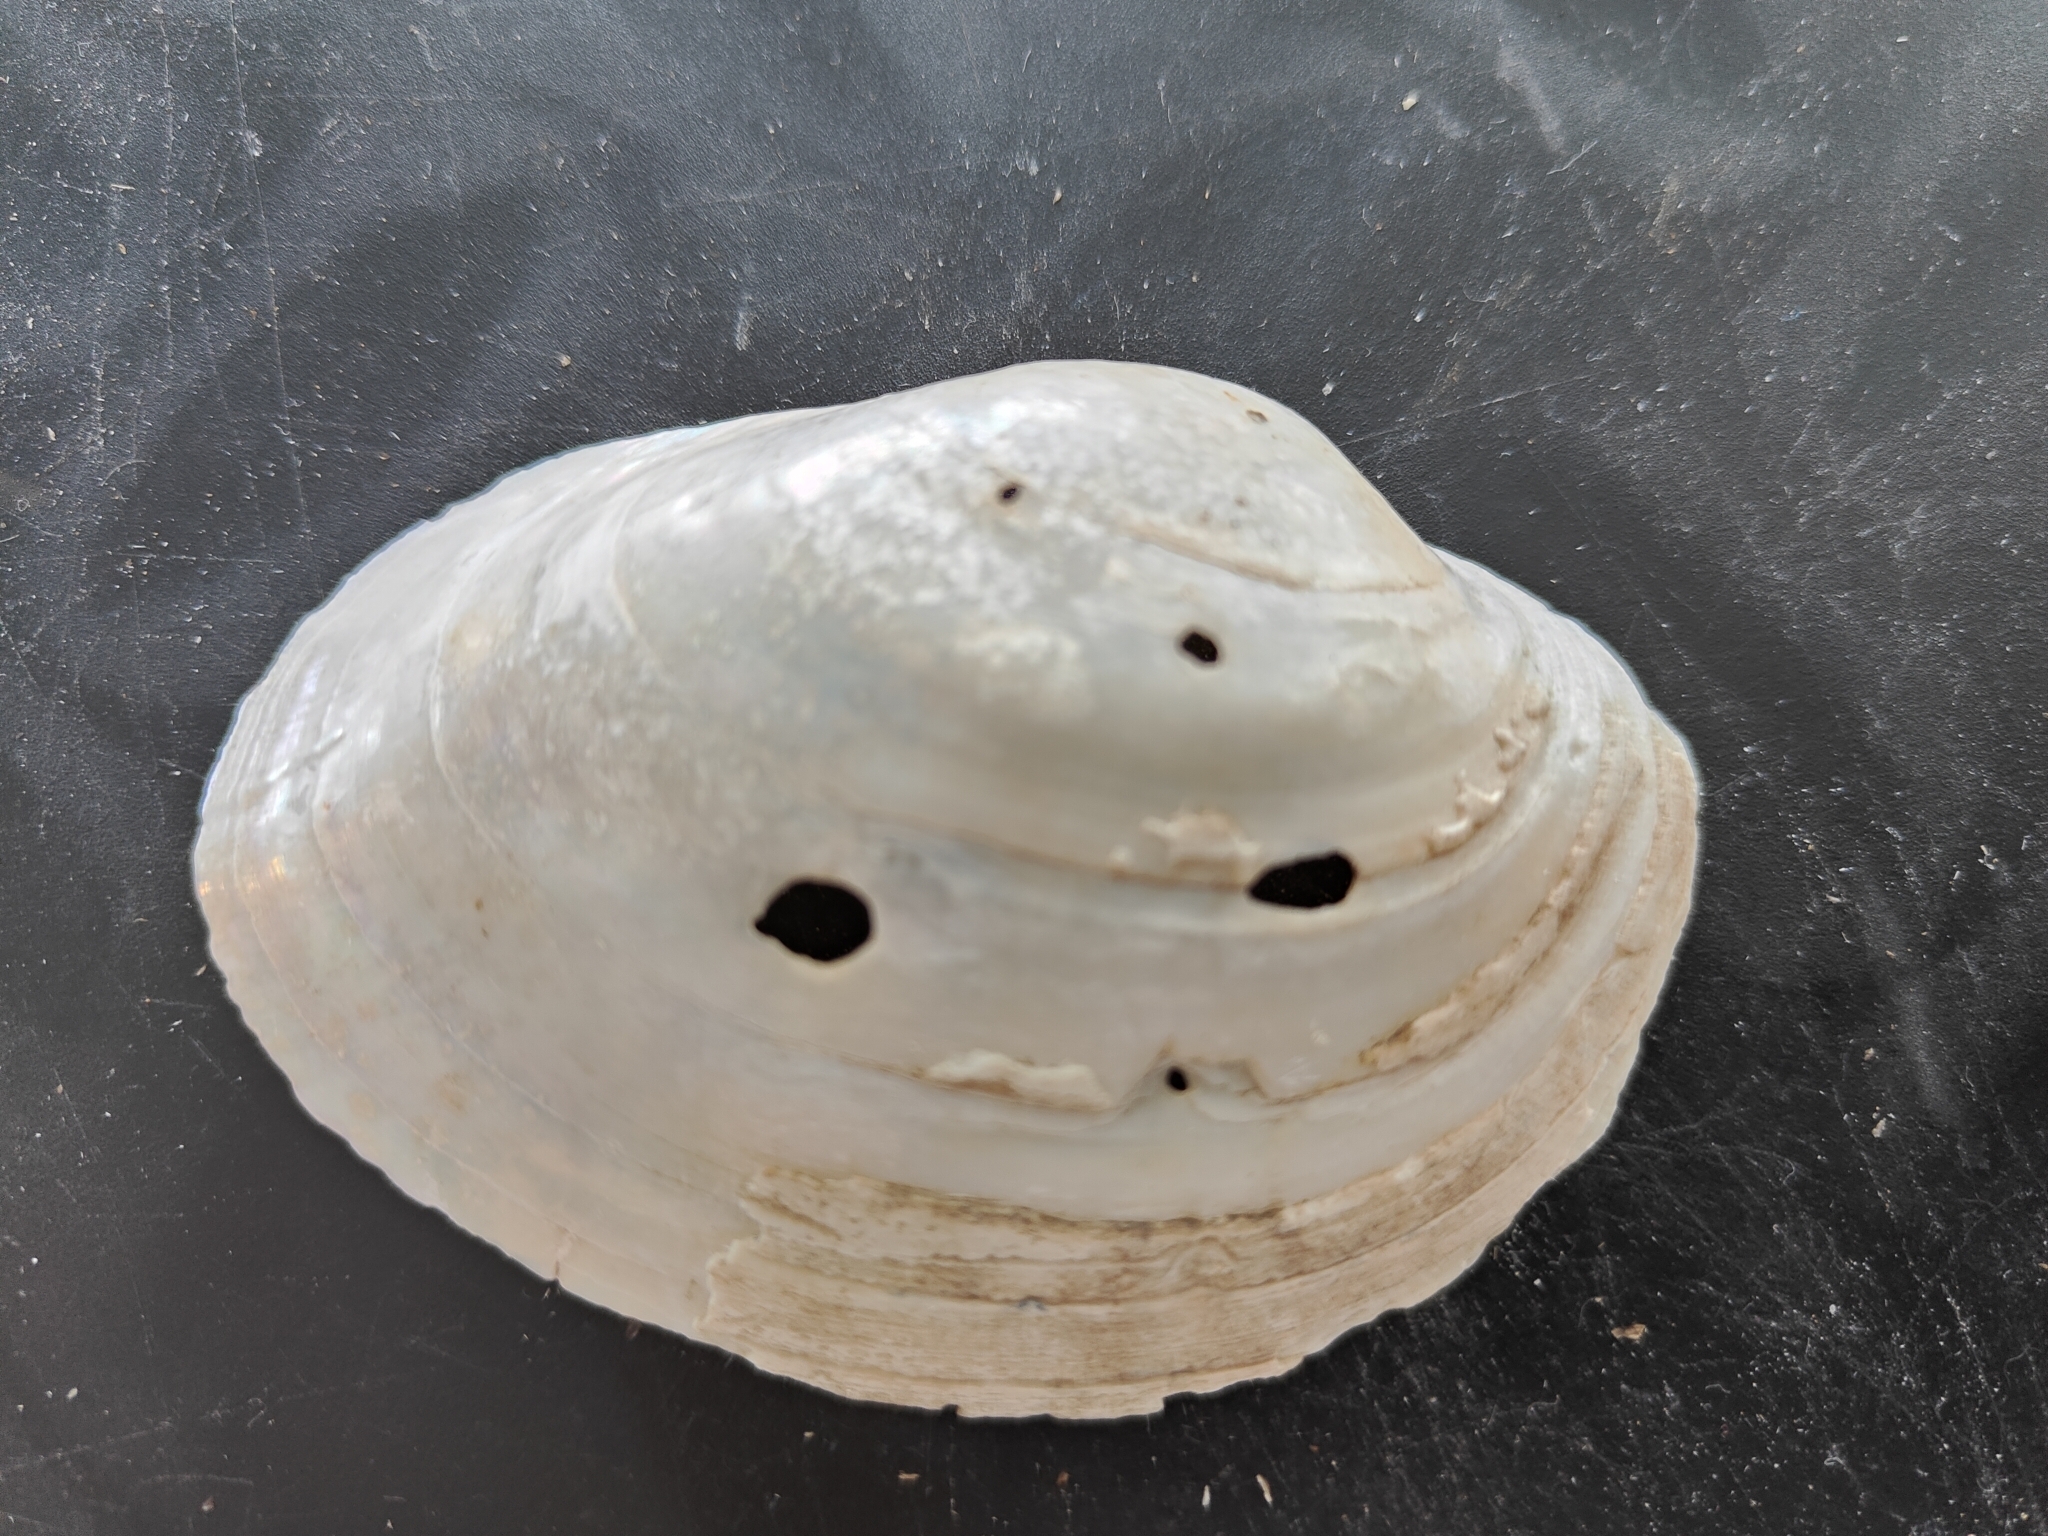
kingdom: Animalia
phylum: Mollusca
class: Bivalvia
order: Unionida
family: Unionidae
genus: Lampsilis
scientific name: Lampsilis cardium
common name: Plain pocketbook
